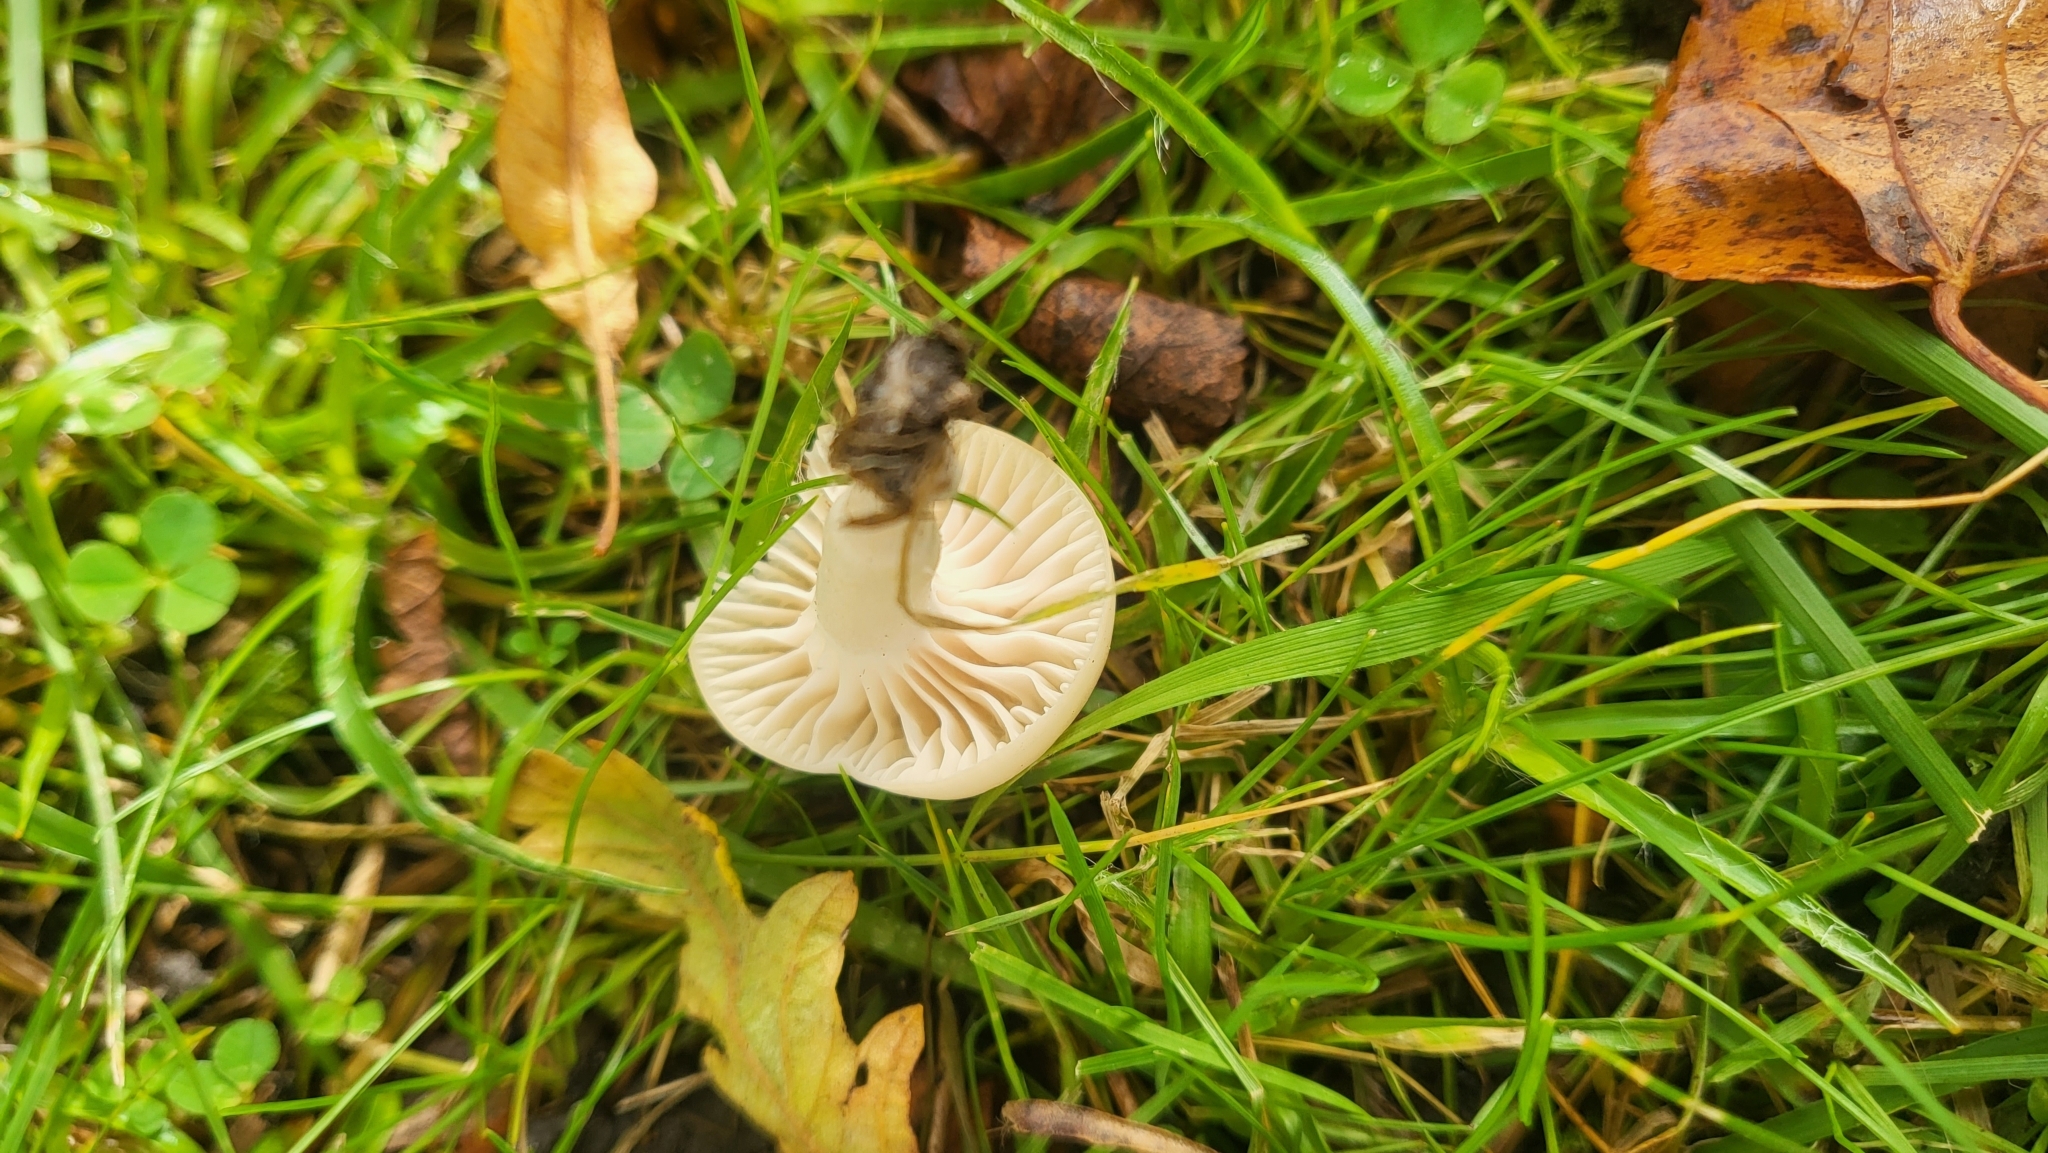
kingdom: Fungi
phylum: Basidiomycota
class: Agaricomycetes
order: Agaricales
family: Hygrophoraceae
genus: Cuphophyllus
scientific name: Cuphophyllus virgineus
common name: Snowy waxcap
